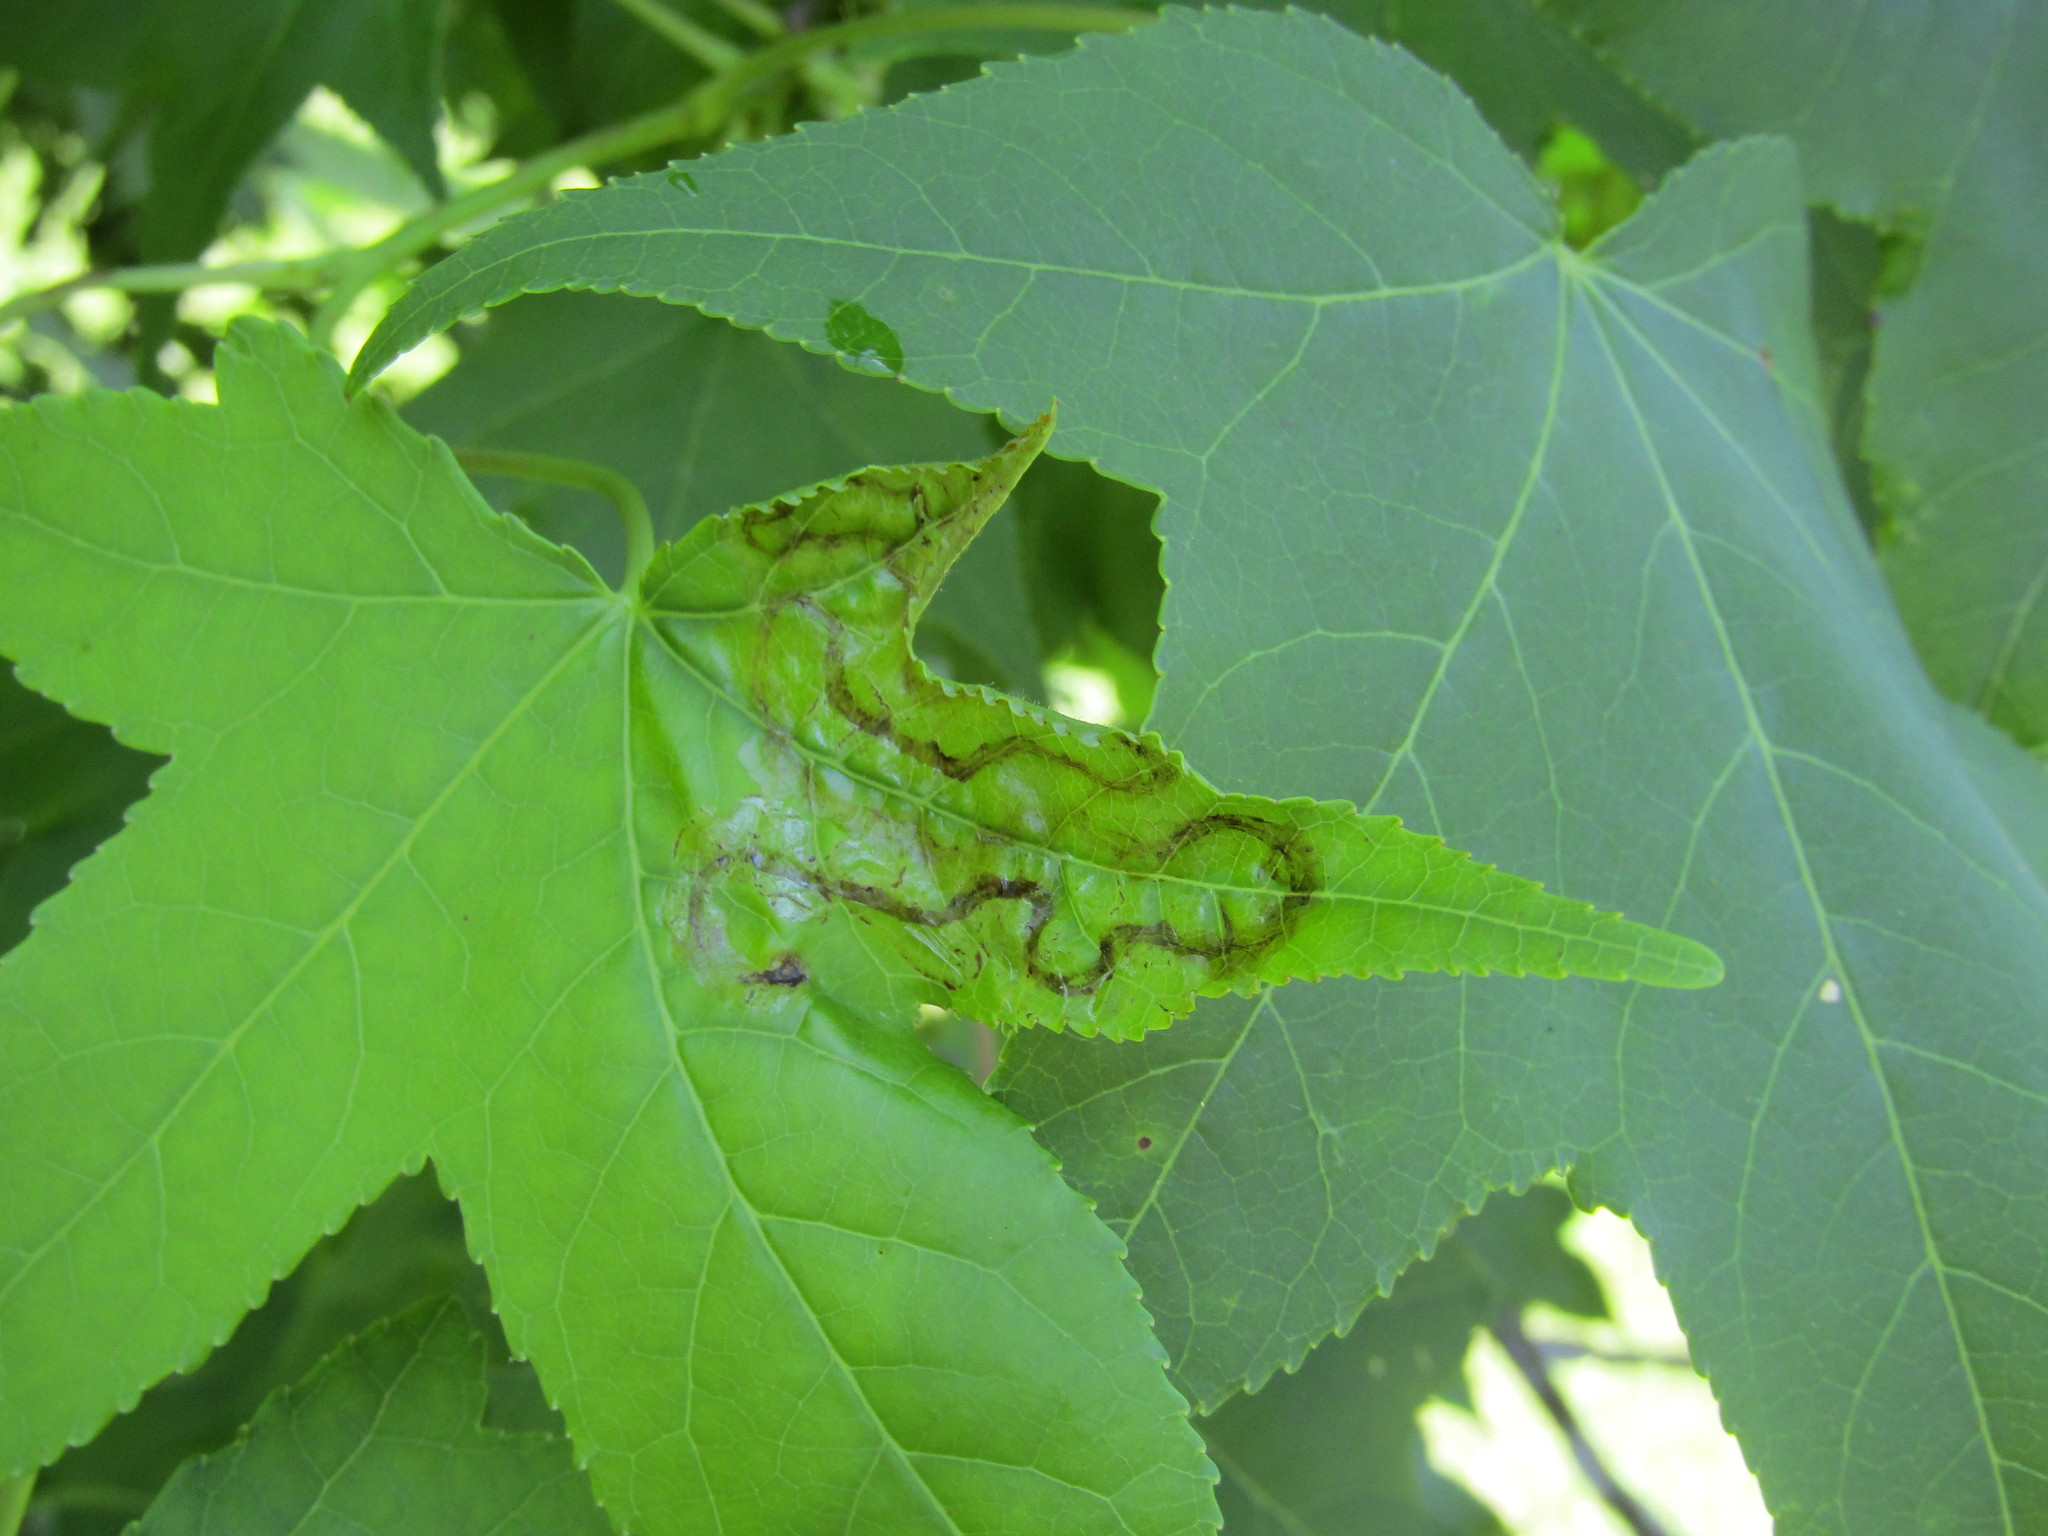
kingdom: Animalia
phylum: Arthropoda
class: Insecta
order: Lepidoptera
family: Gracillariidae
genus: Phyllocnistis
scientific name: Phyllocnistis liquidambarisella
